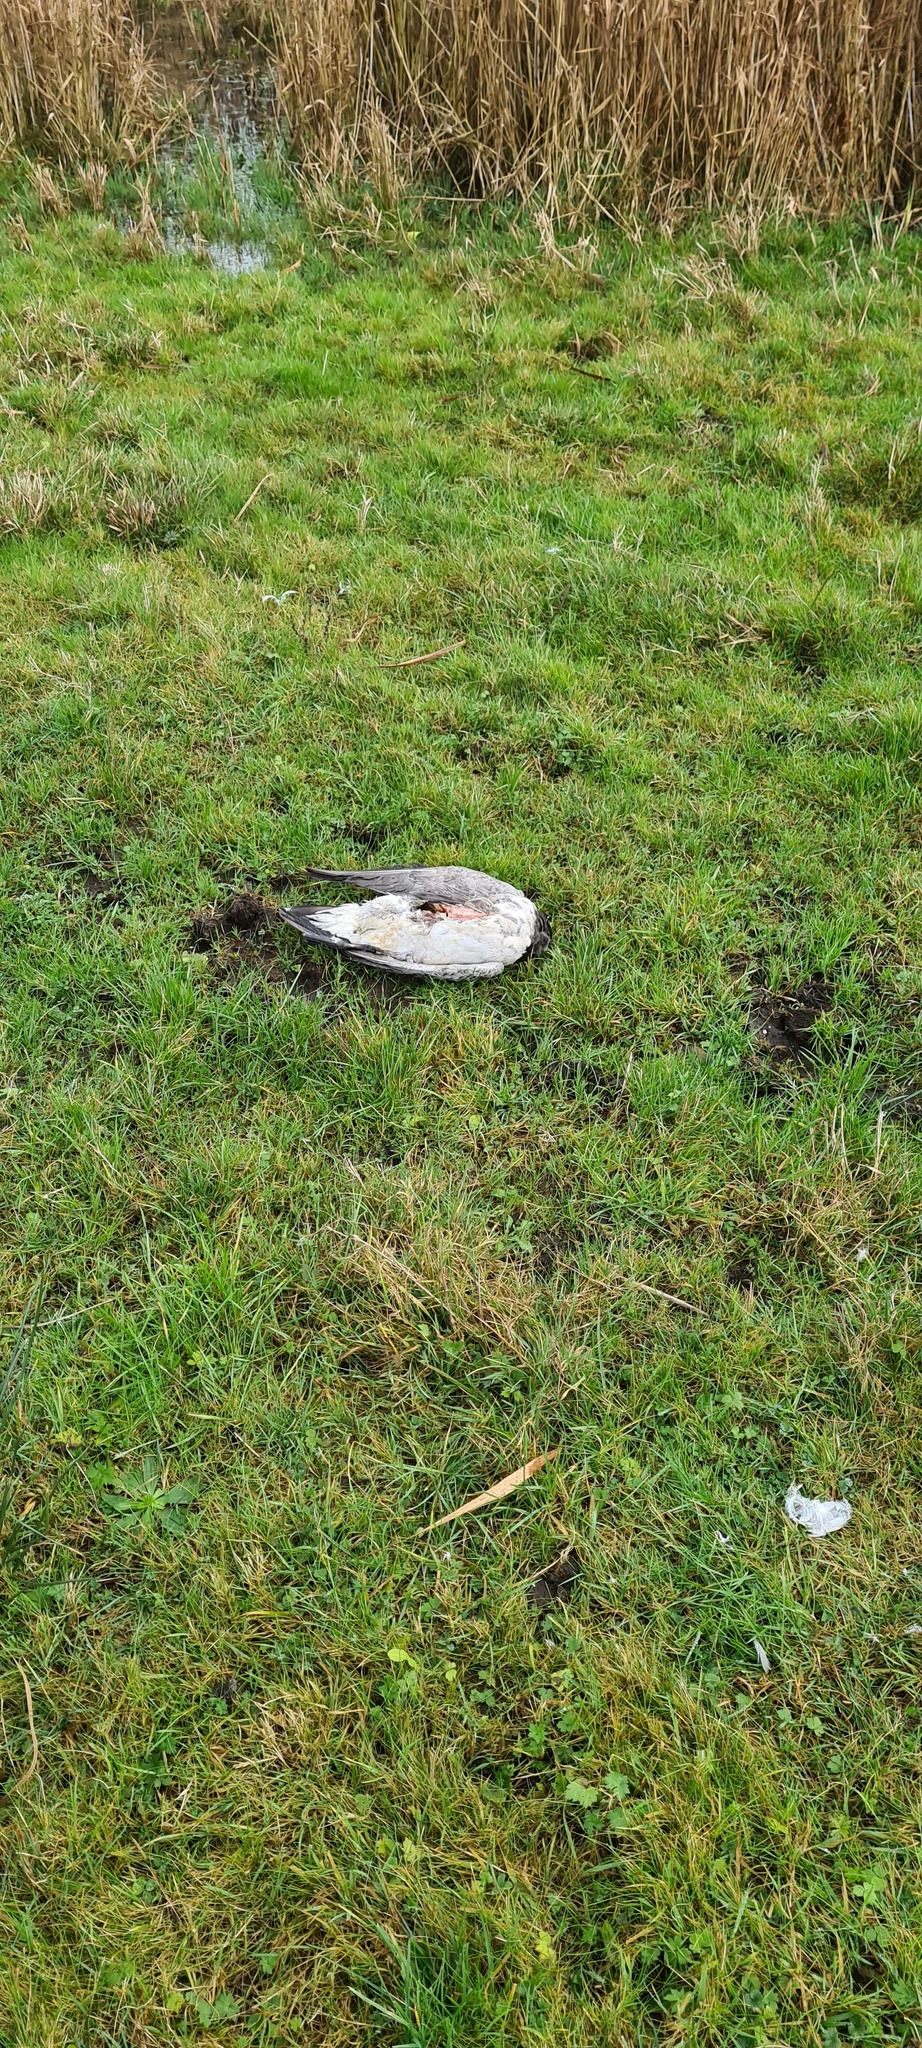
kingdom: Animalia
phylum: Chordata
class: Aves
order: Anseriformes
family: Anatidae
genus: Branta
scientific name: Branta leucopsis
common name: Barnacle goose
